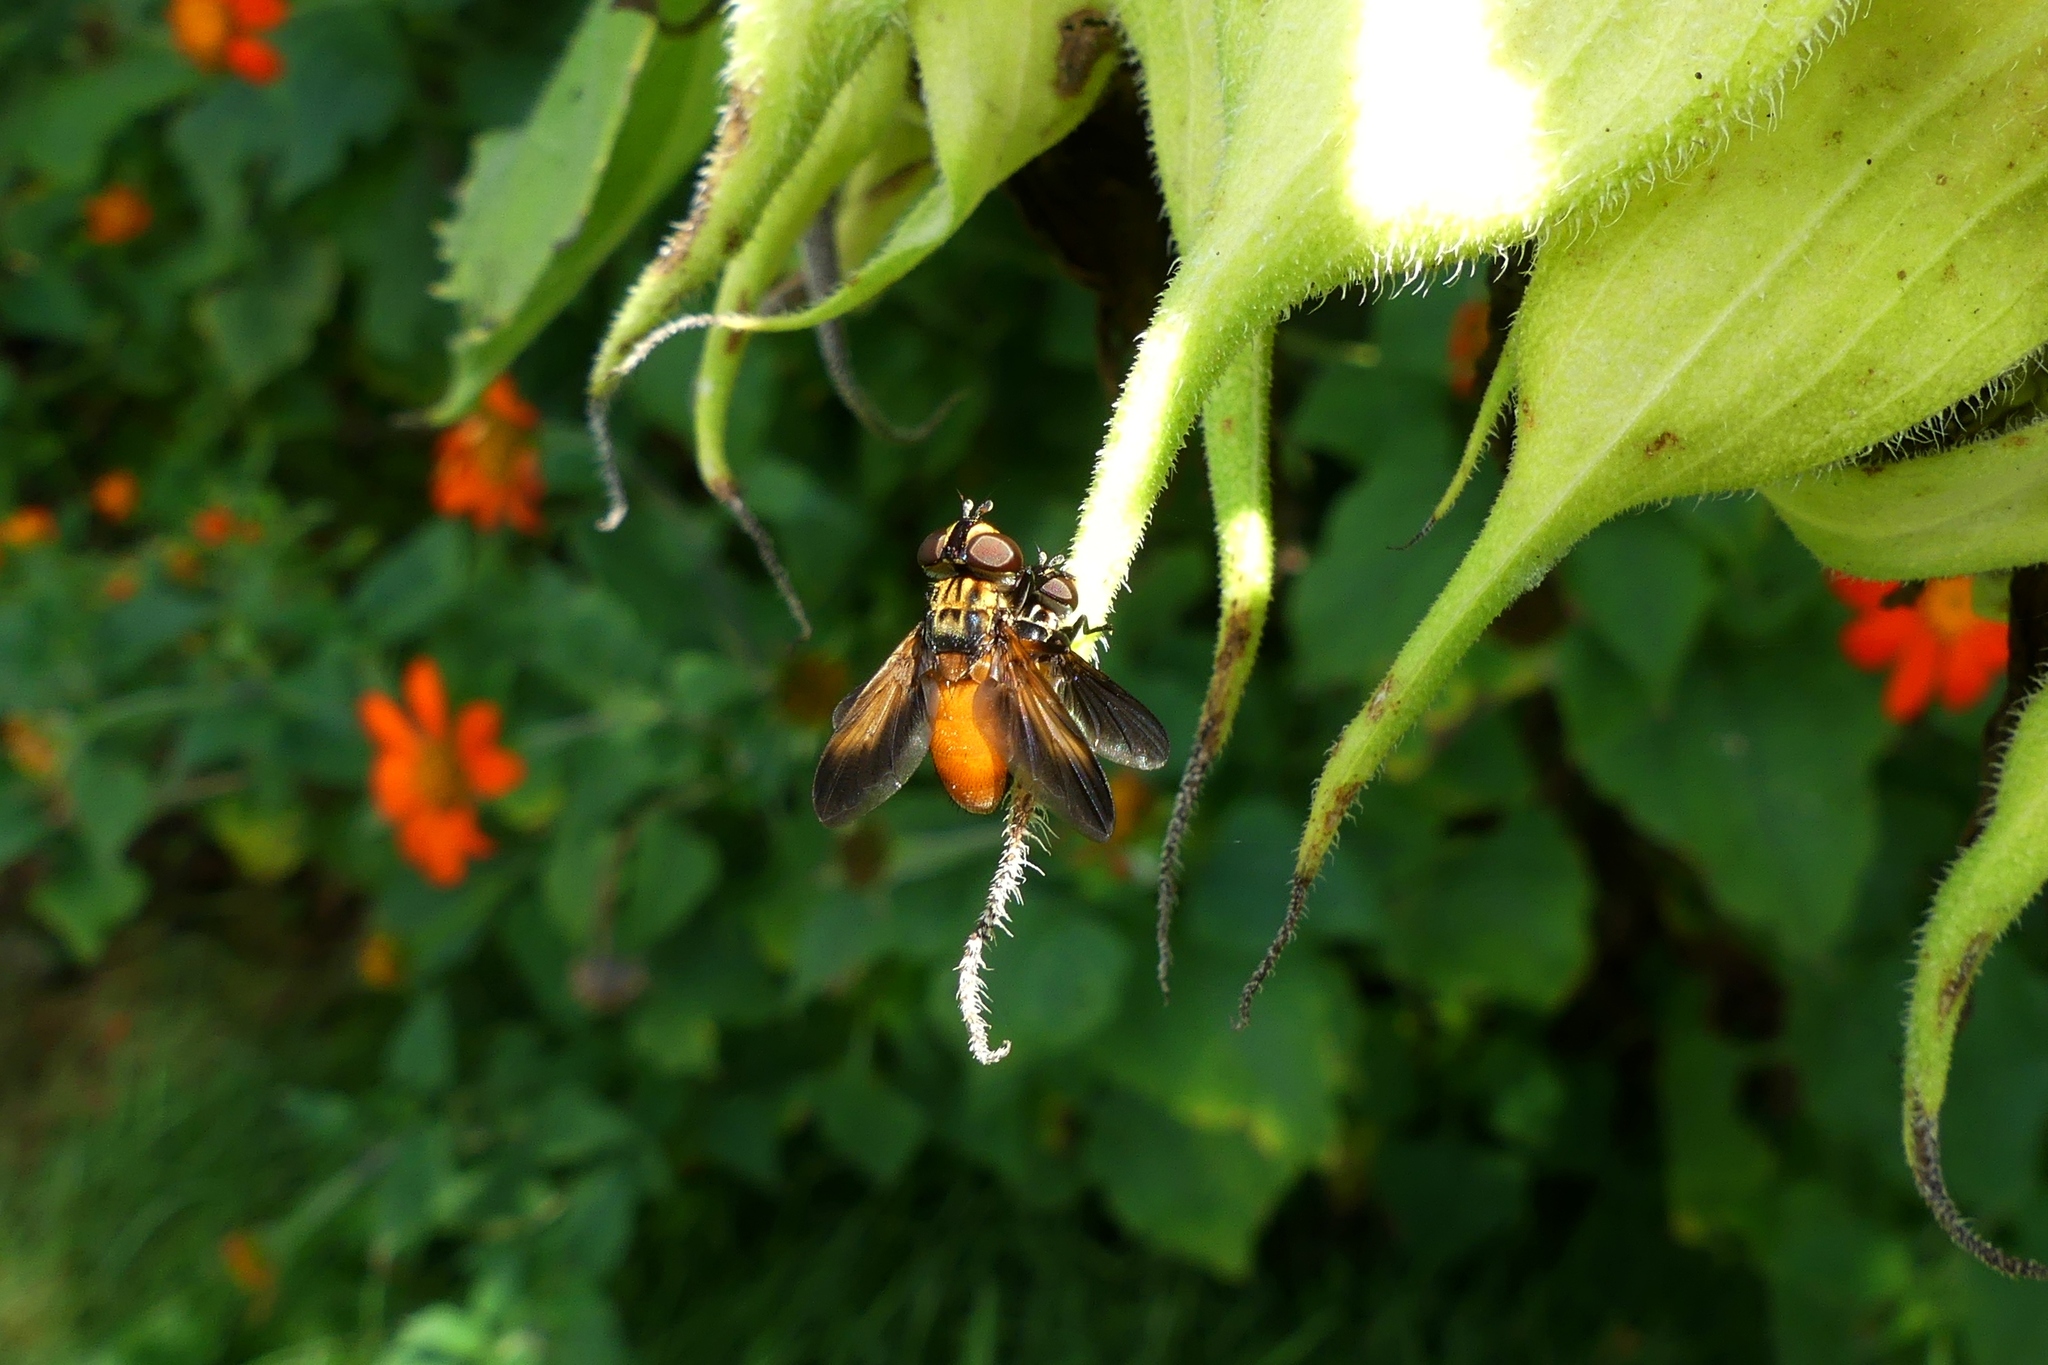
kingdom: Animalia
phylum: Arthropoda
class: Insecta
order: Diptera
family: Tachinidae
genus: Trichopoda
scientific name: Trichopoda pennipes
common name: Tachinid fly
